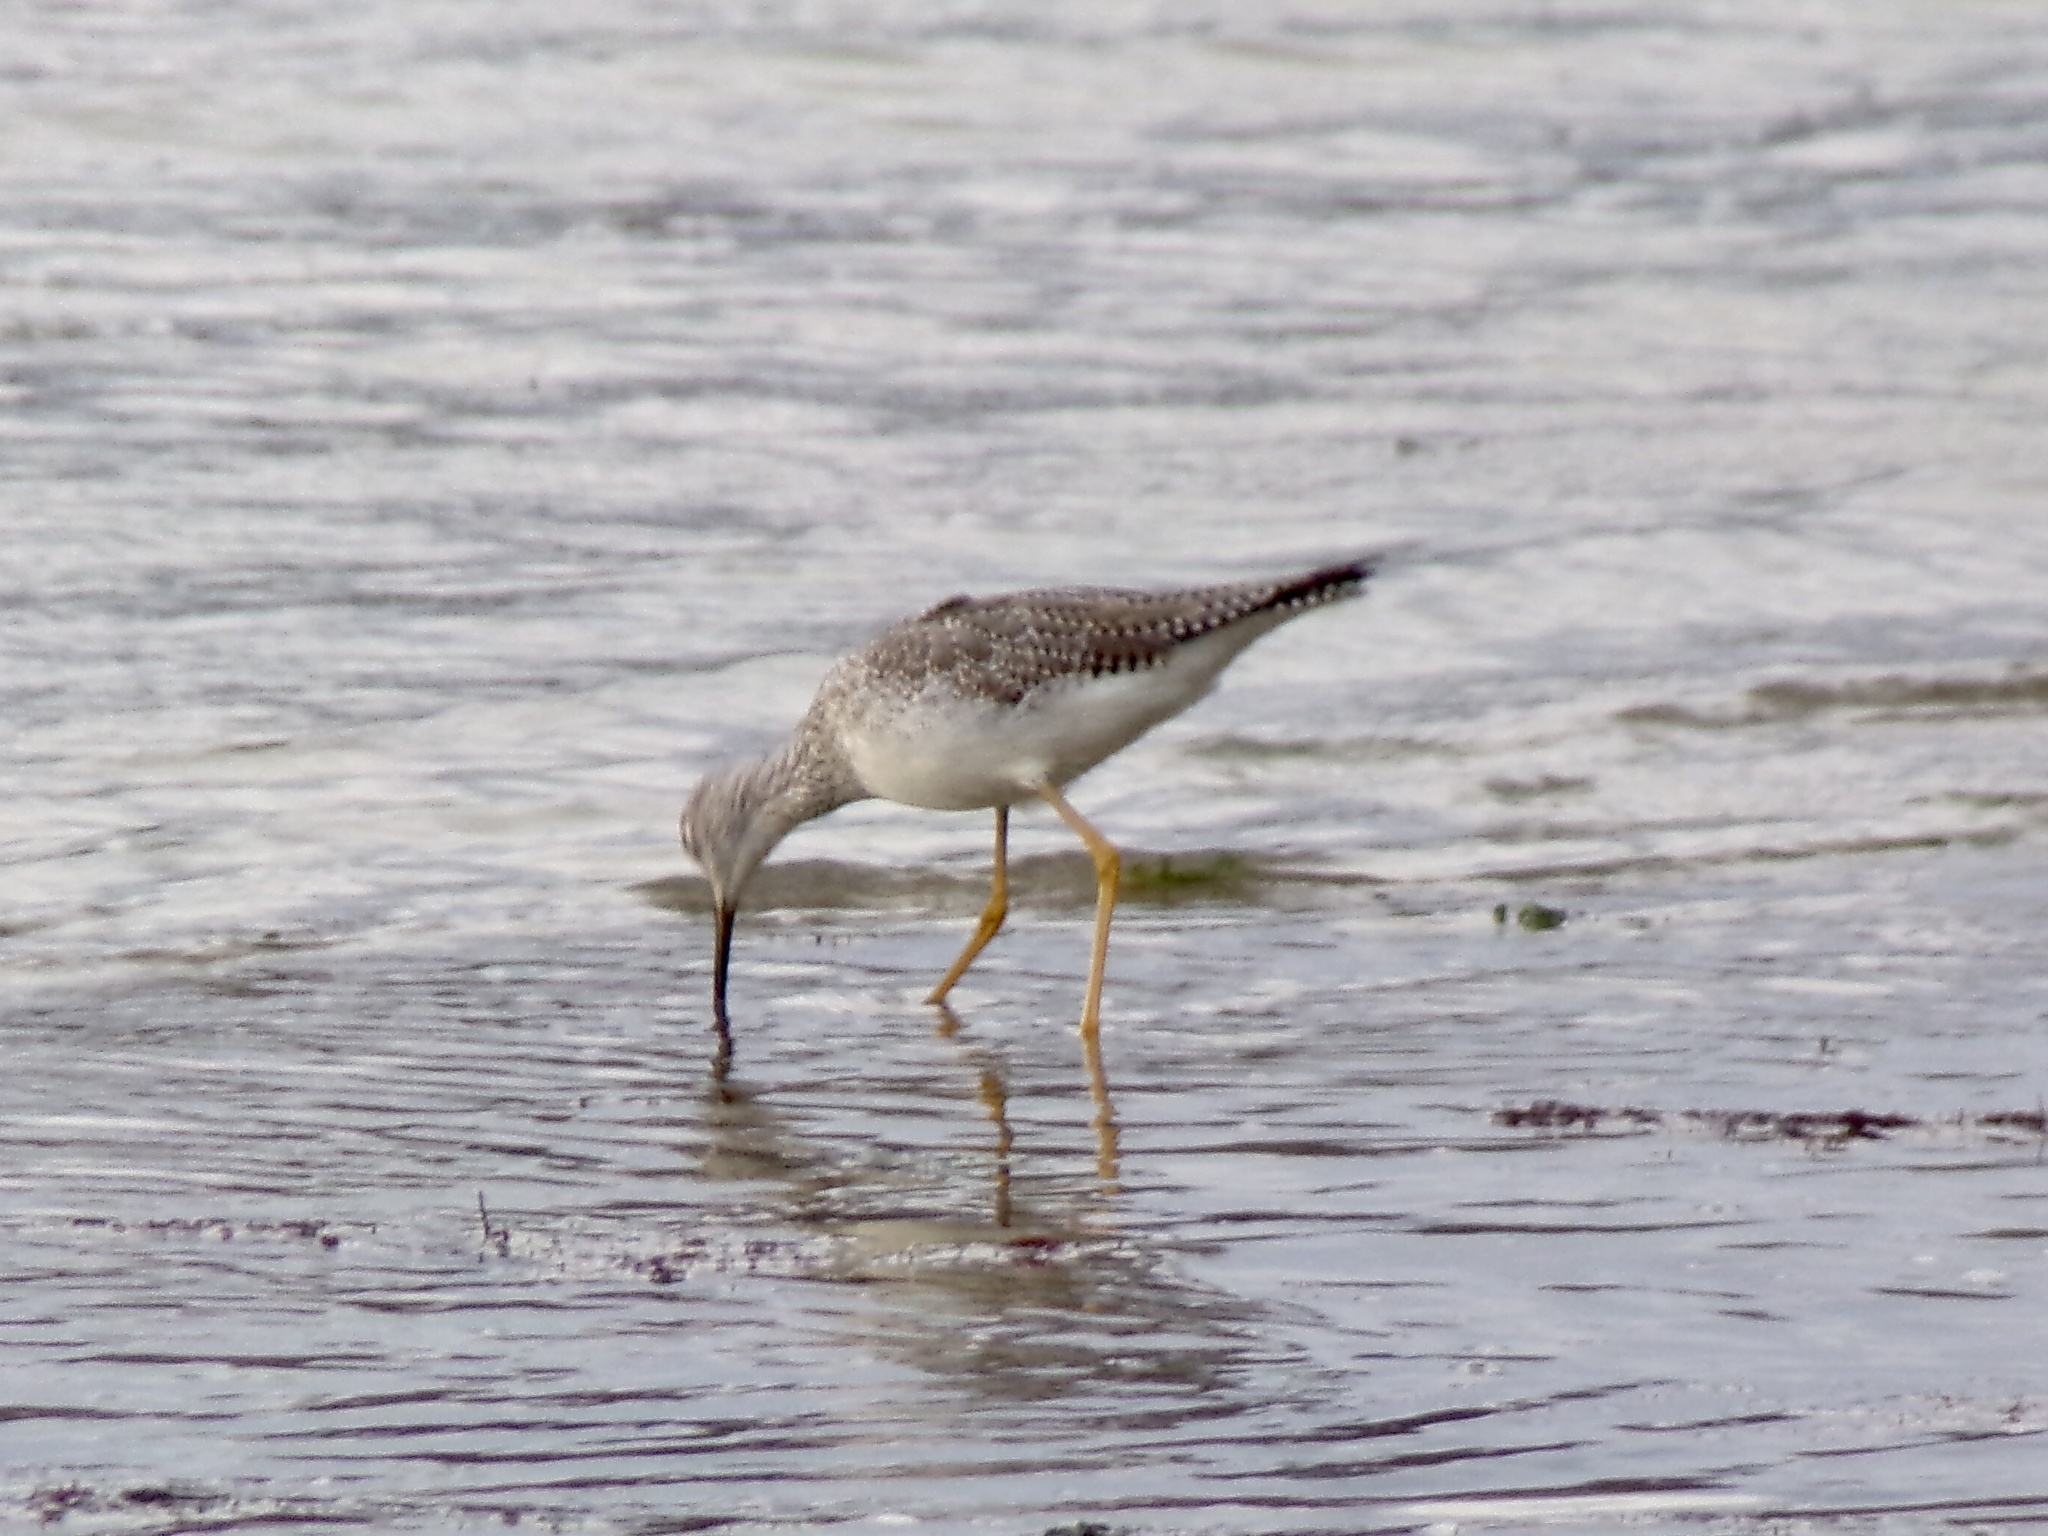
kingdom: Animalia
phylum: Chordata
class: Aves
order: Charadriiformes
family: Scolopacidae
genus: Tringa
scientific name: Tringa melanoleuca
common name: Greater yellowlegs
